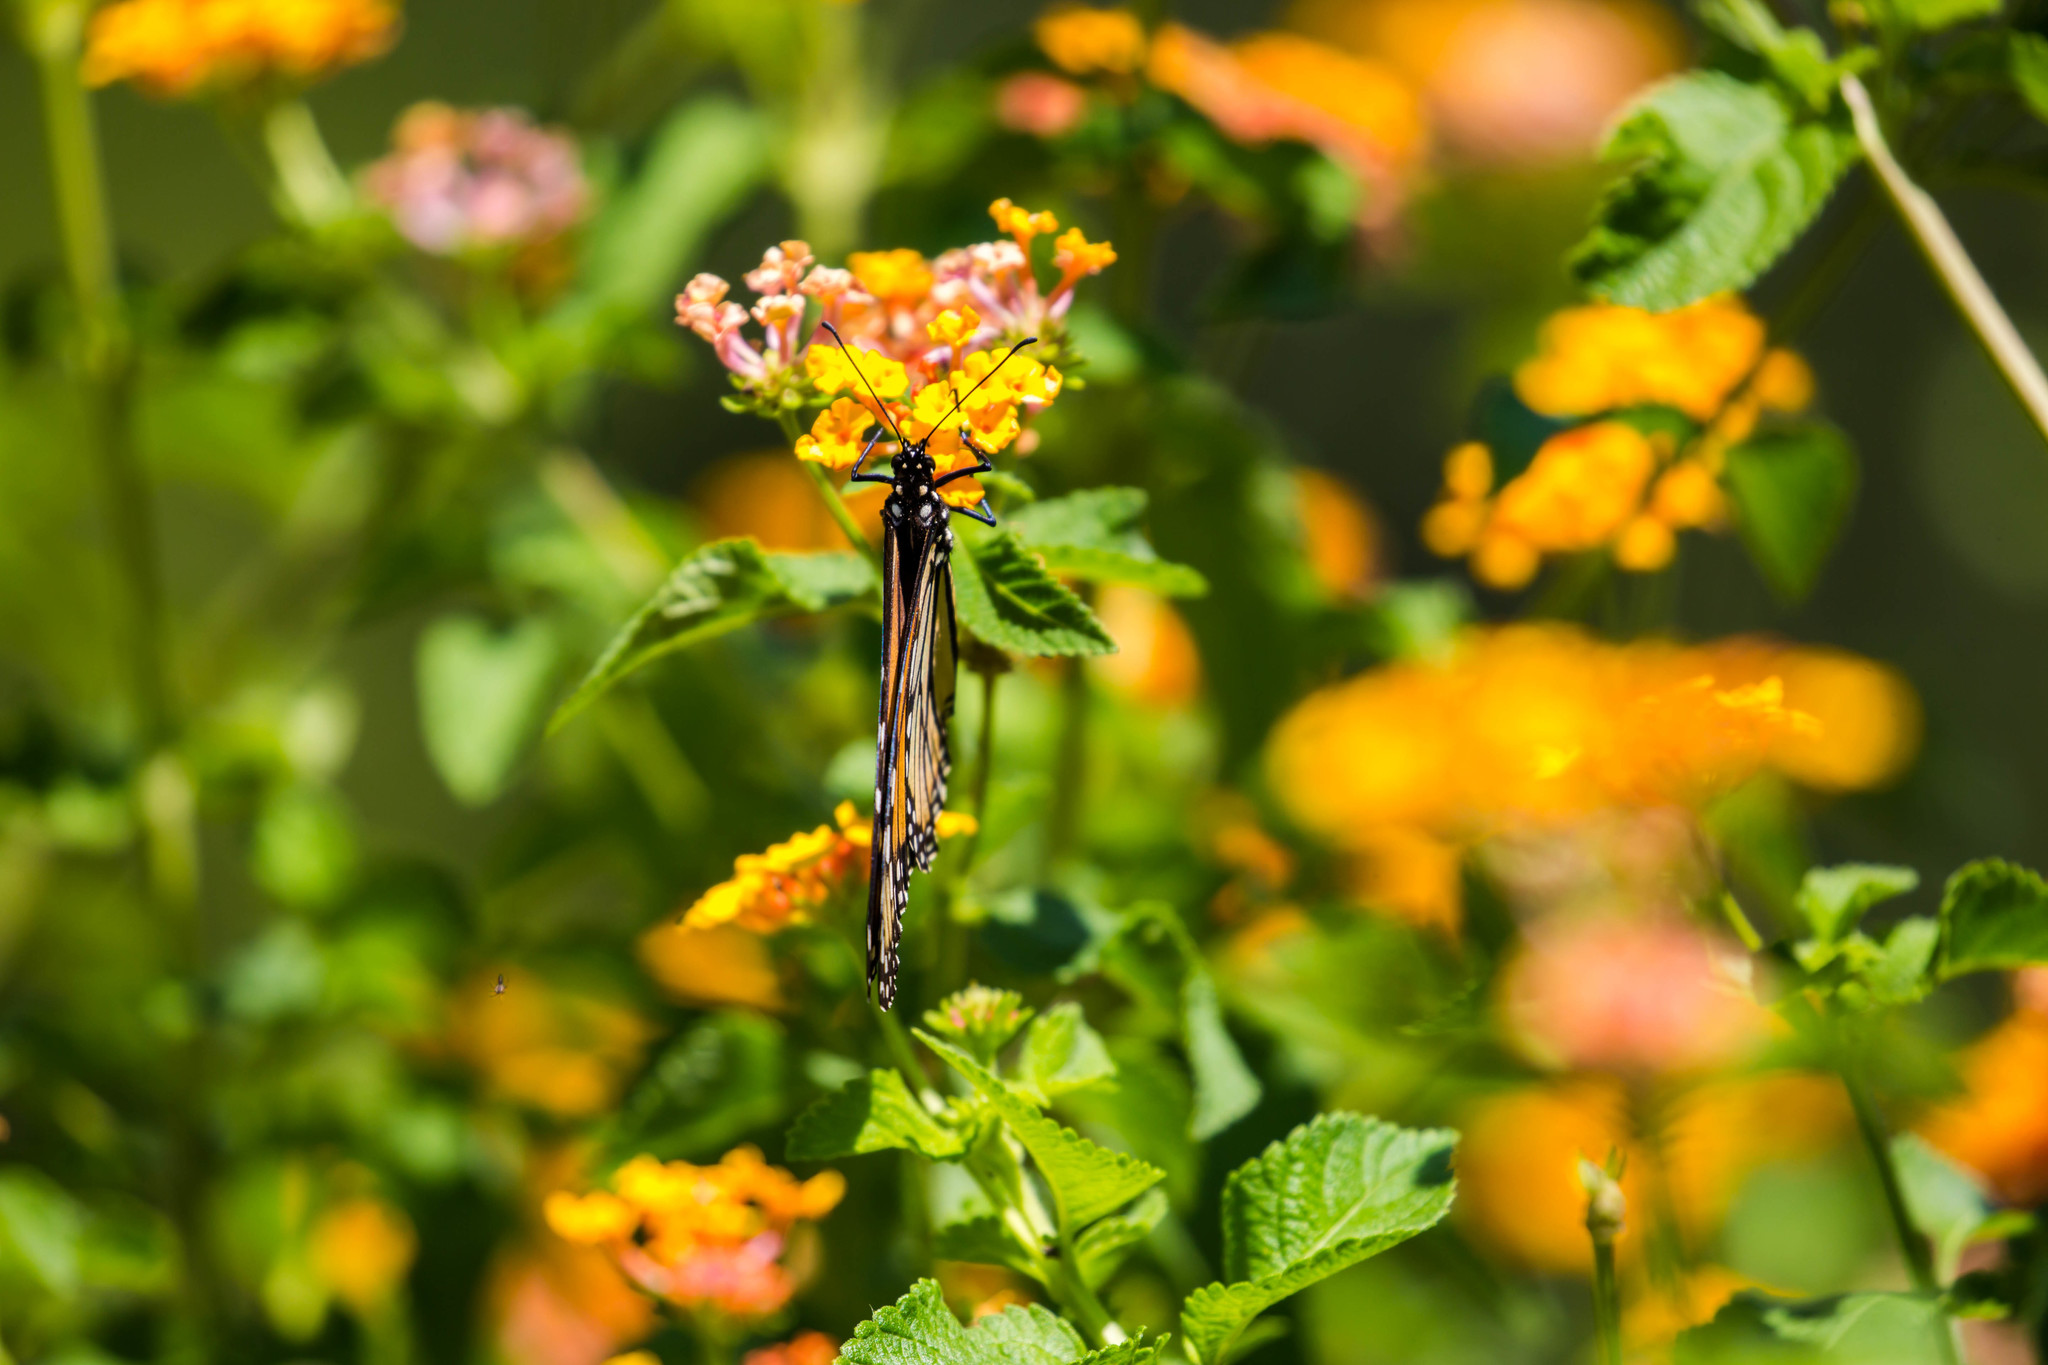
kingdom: Animalia
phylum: Arthropoda
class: Insecta
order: Lepidoptera
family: Nymphalidae
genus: Danaus
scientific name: Danaus plexippus
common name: Monarch
